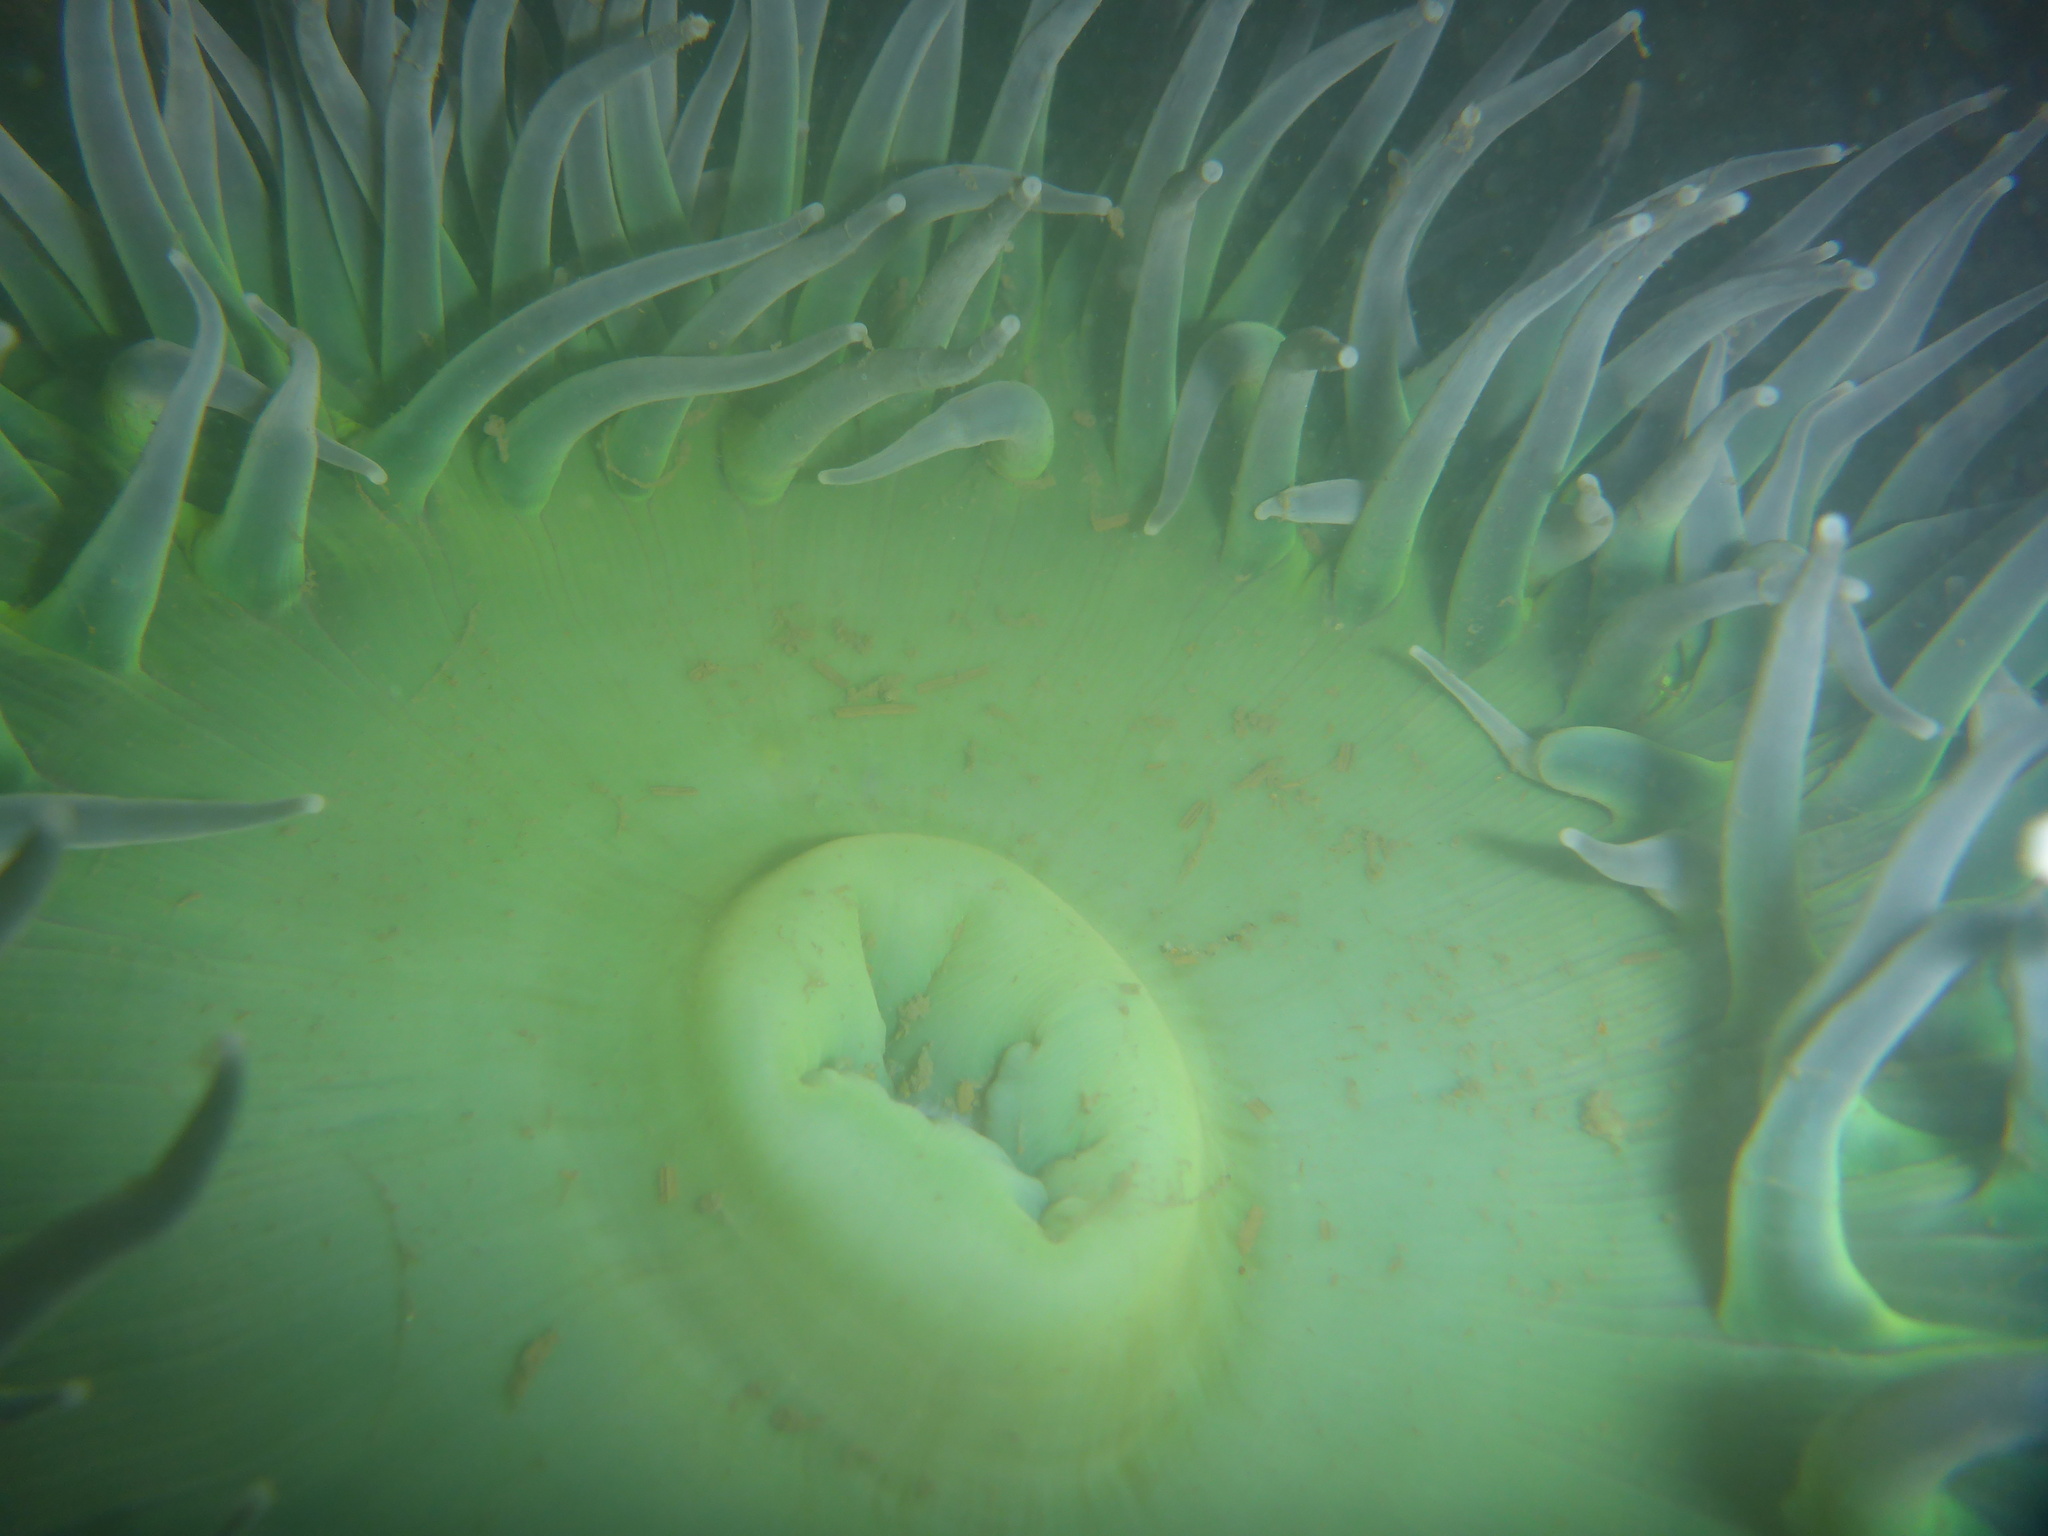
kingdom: Animalia
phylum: Cnidaria
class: Anthozoa
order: Actiniaria
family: Actiniidae
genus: Anthopleura
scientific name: Anthopleura xanthogrammica
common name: Giant green anemone
